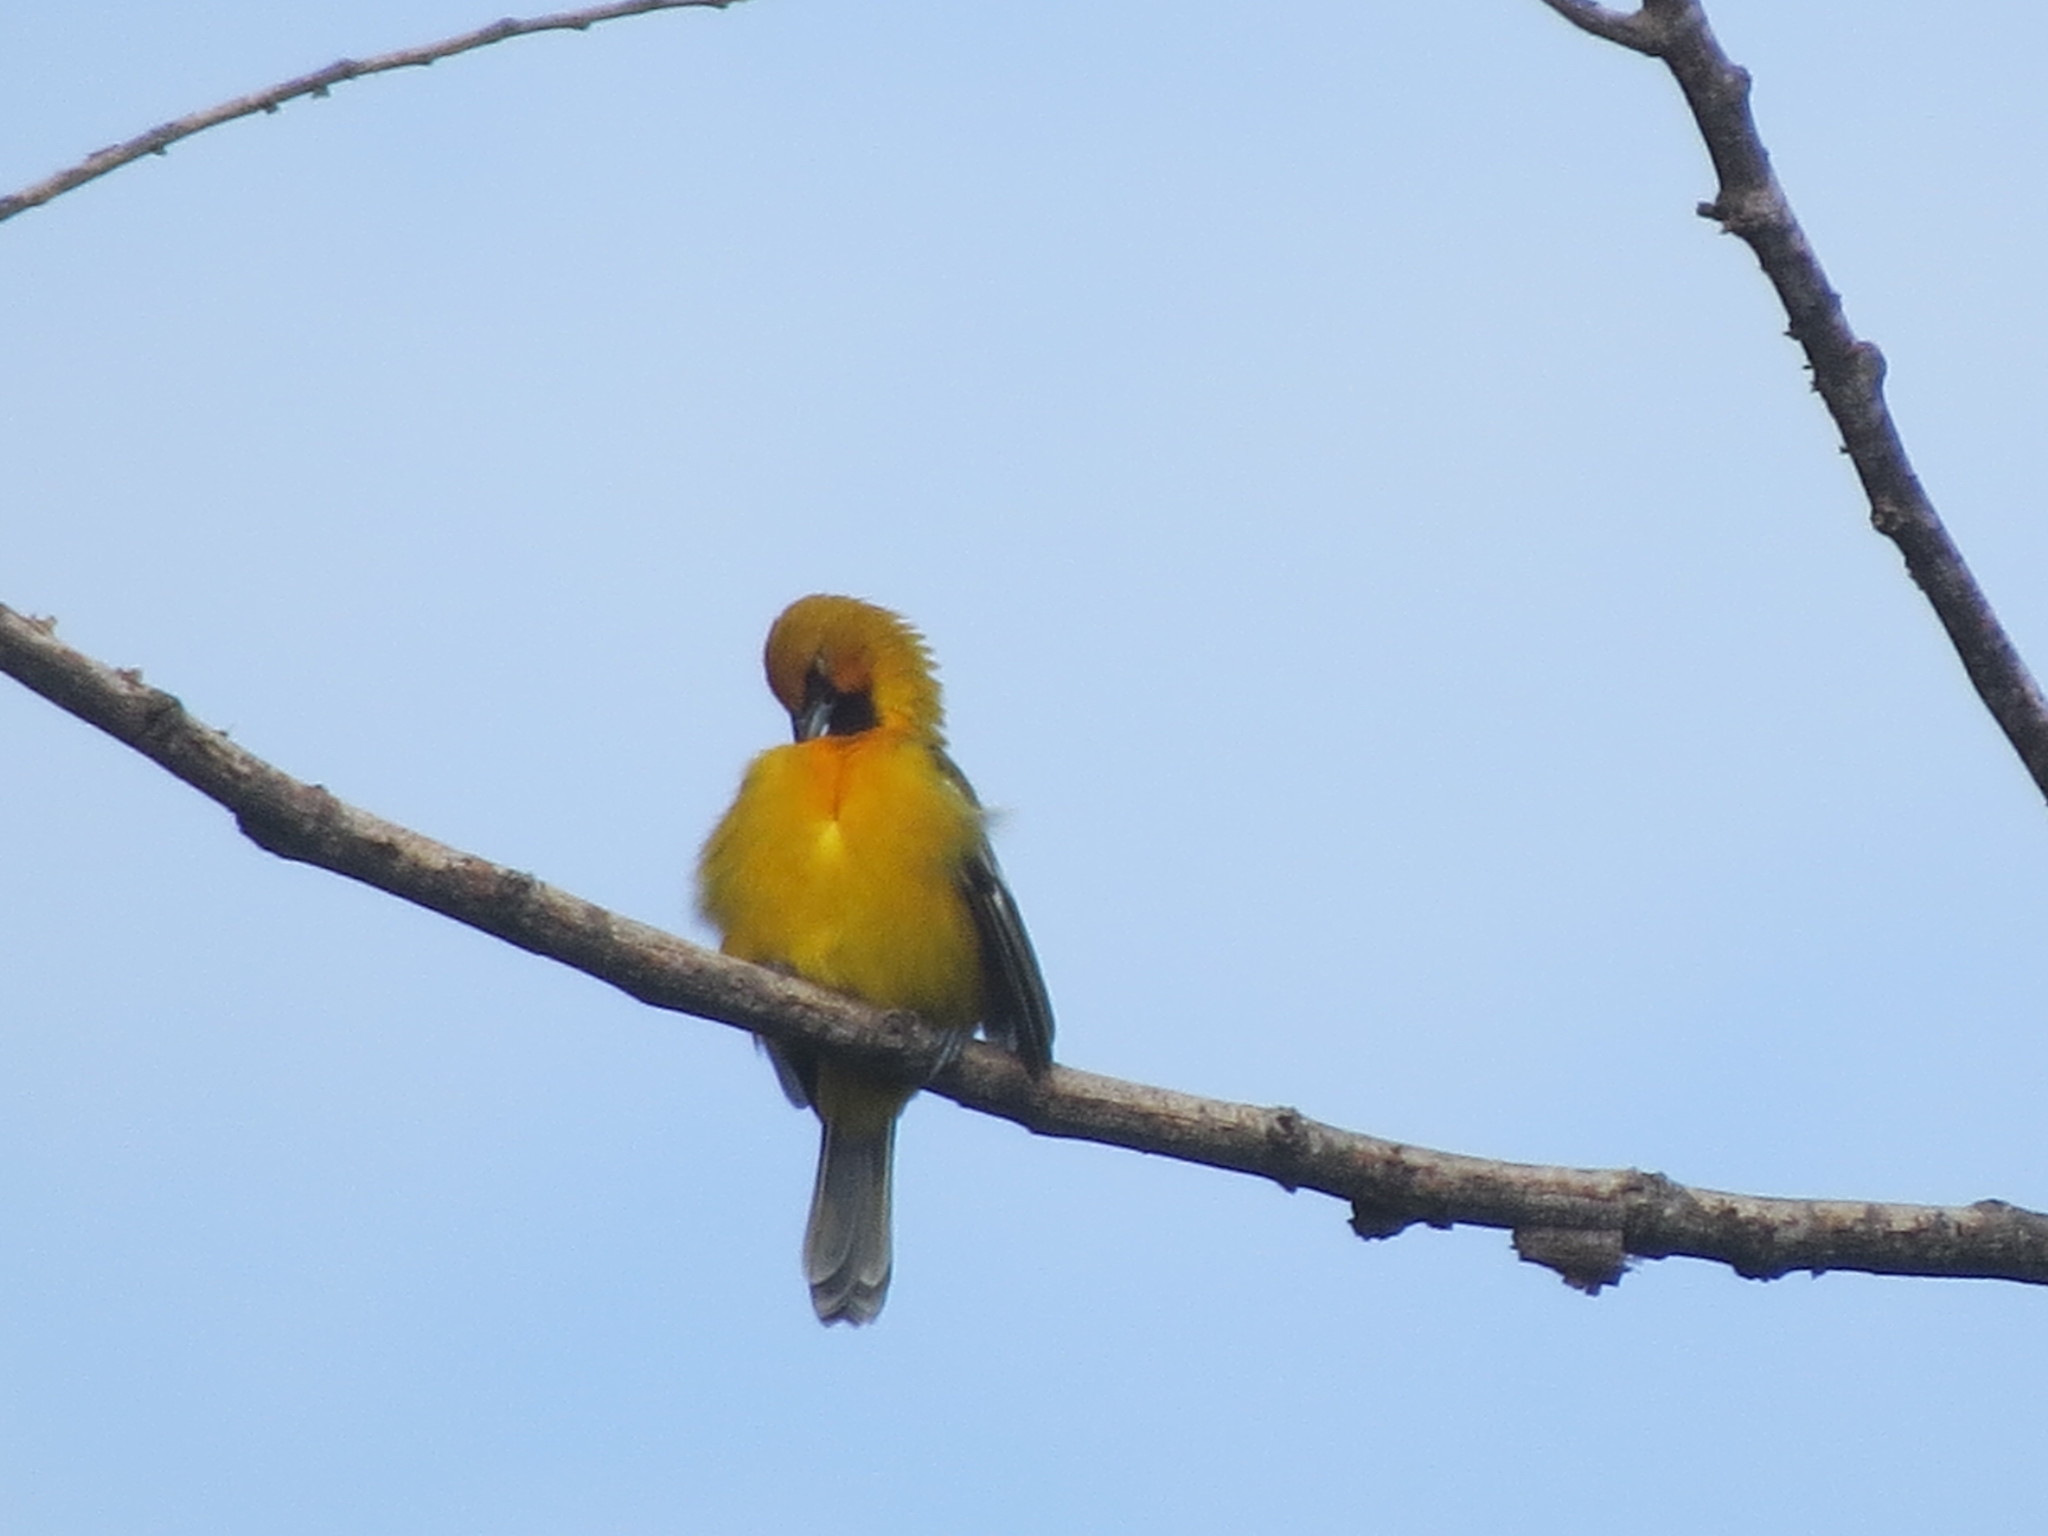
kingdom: Animalia
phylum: Chordata
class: Aves
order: Passeriformes
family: Icteridae
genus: Icterus
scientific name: Icterus pustulatus
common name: Streak-backed oriole
